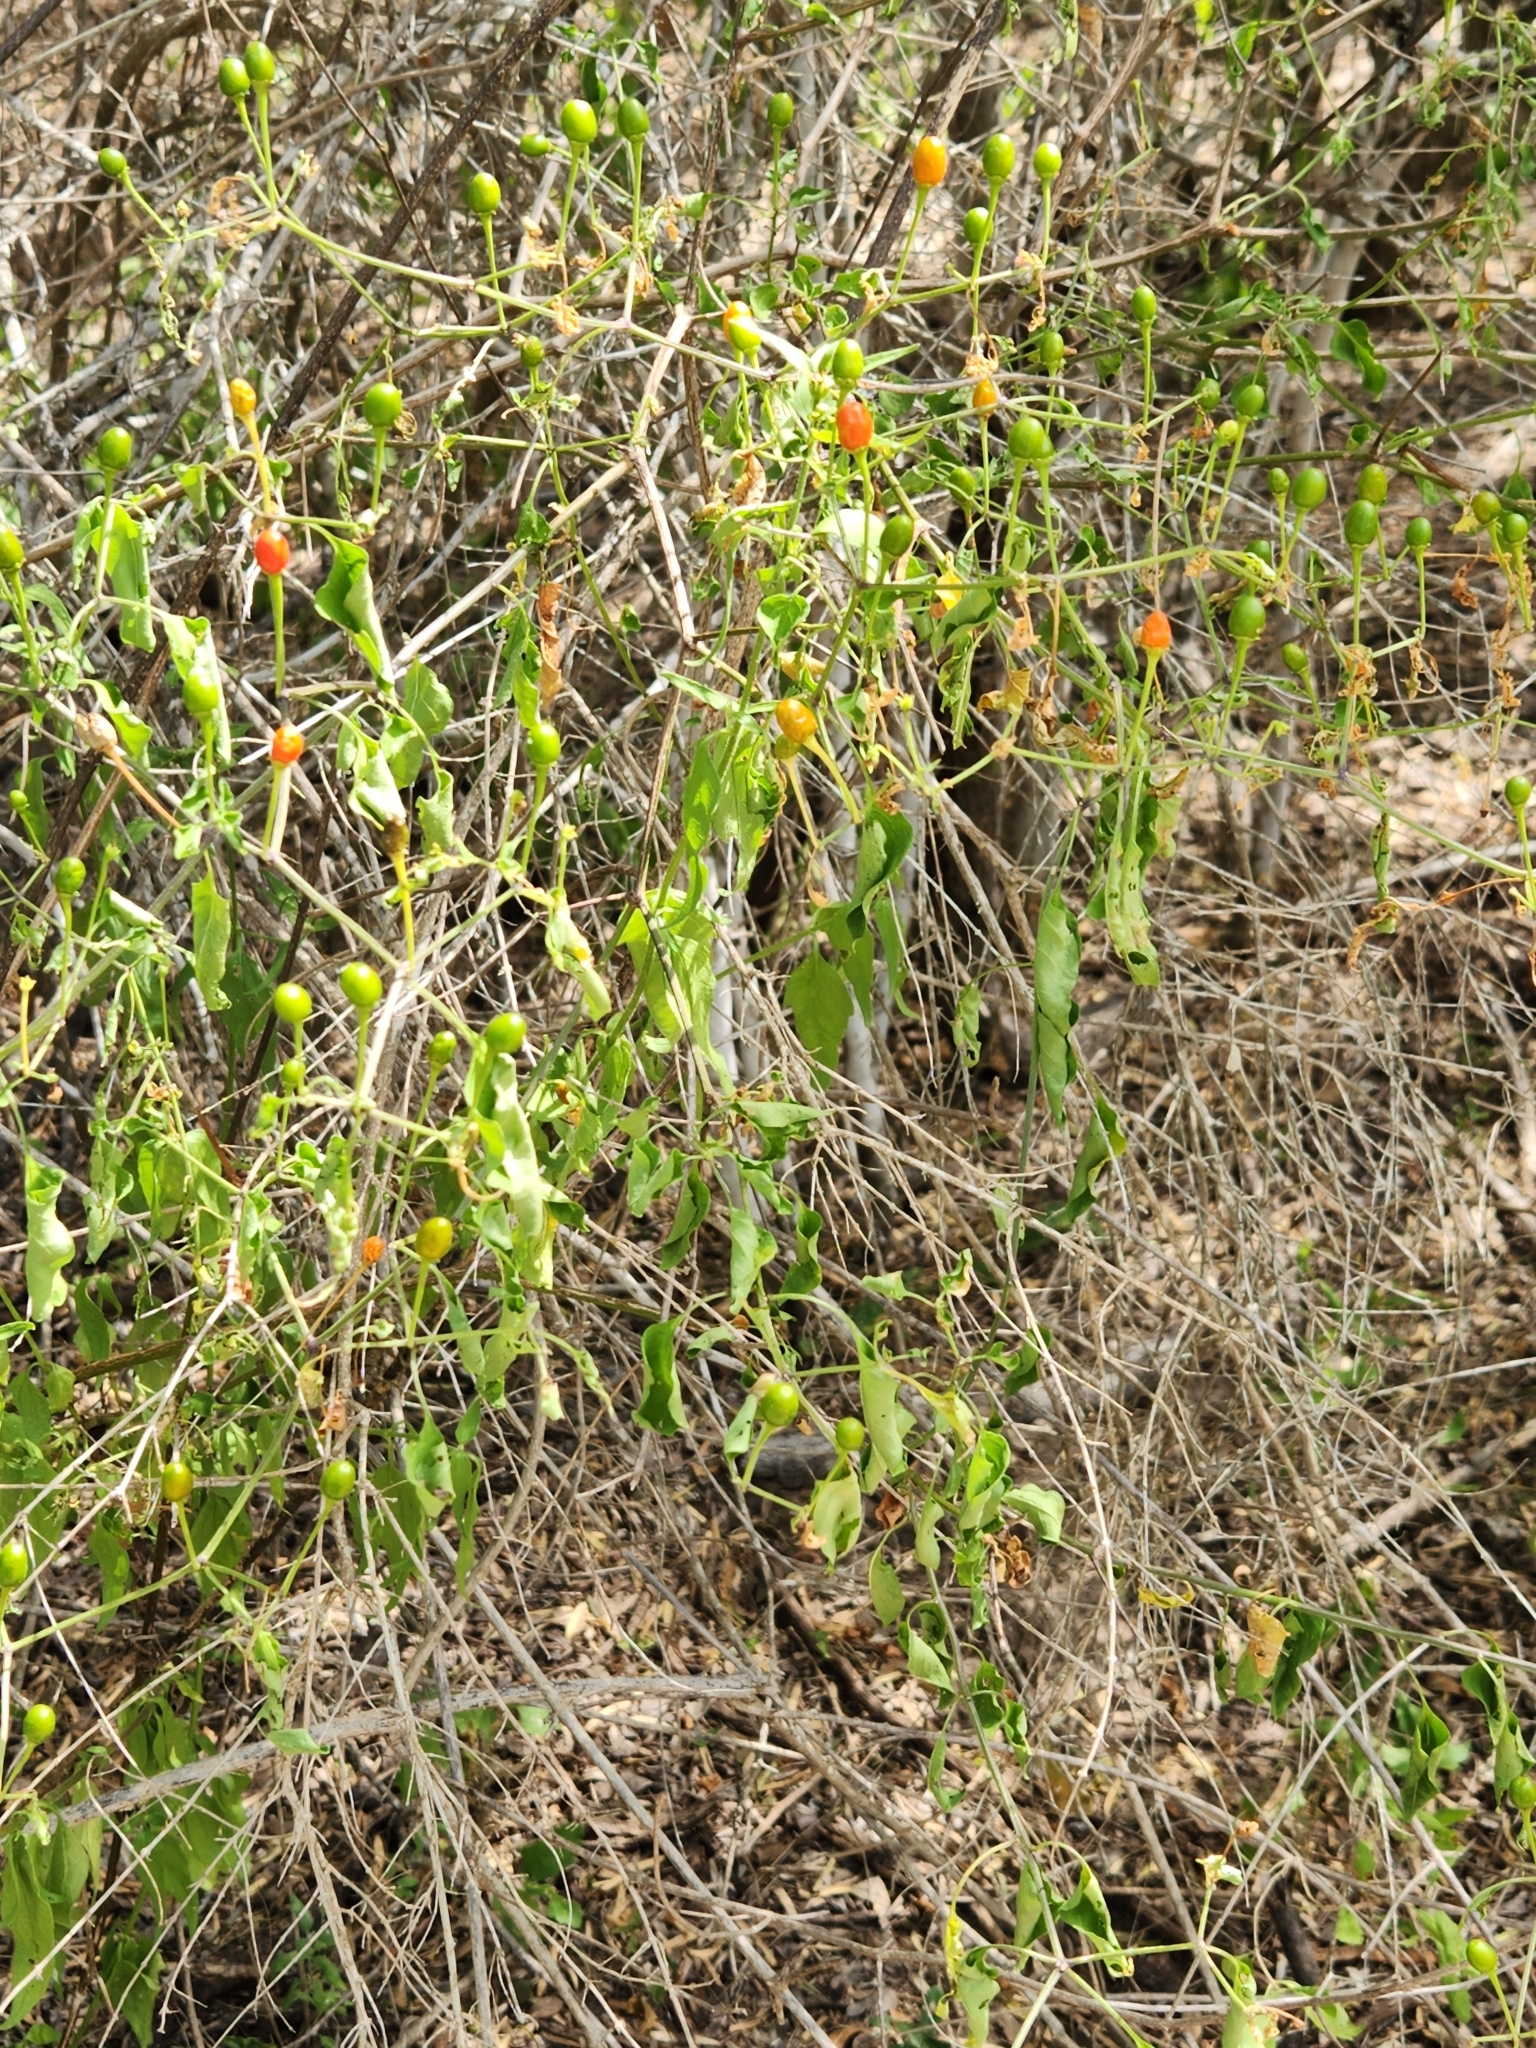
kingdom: Plantae
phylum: Tracheophyta
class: Magnoliopsida
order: Solanales
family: Solanaceae
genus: Capsicum
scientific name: Capsicum annuum
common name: Sweet pepper
